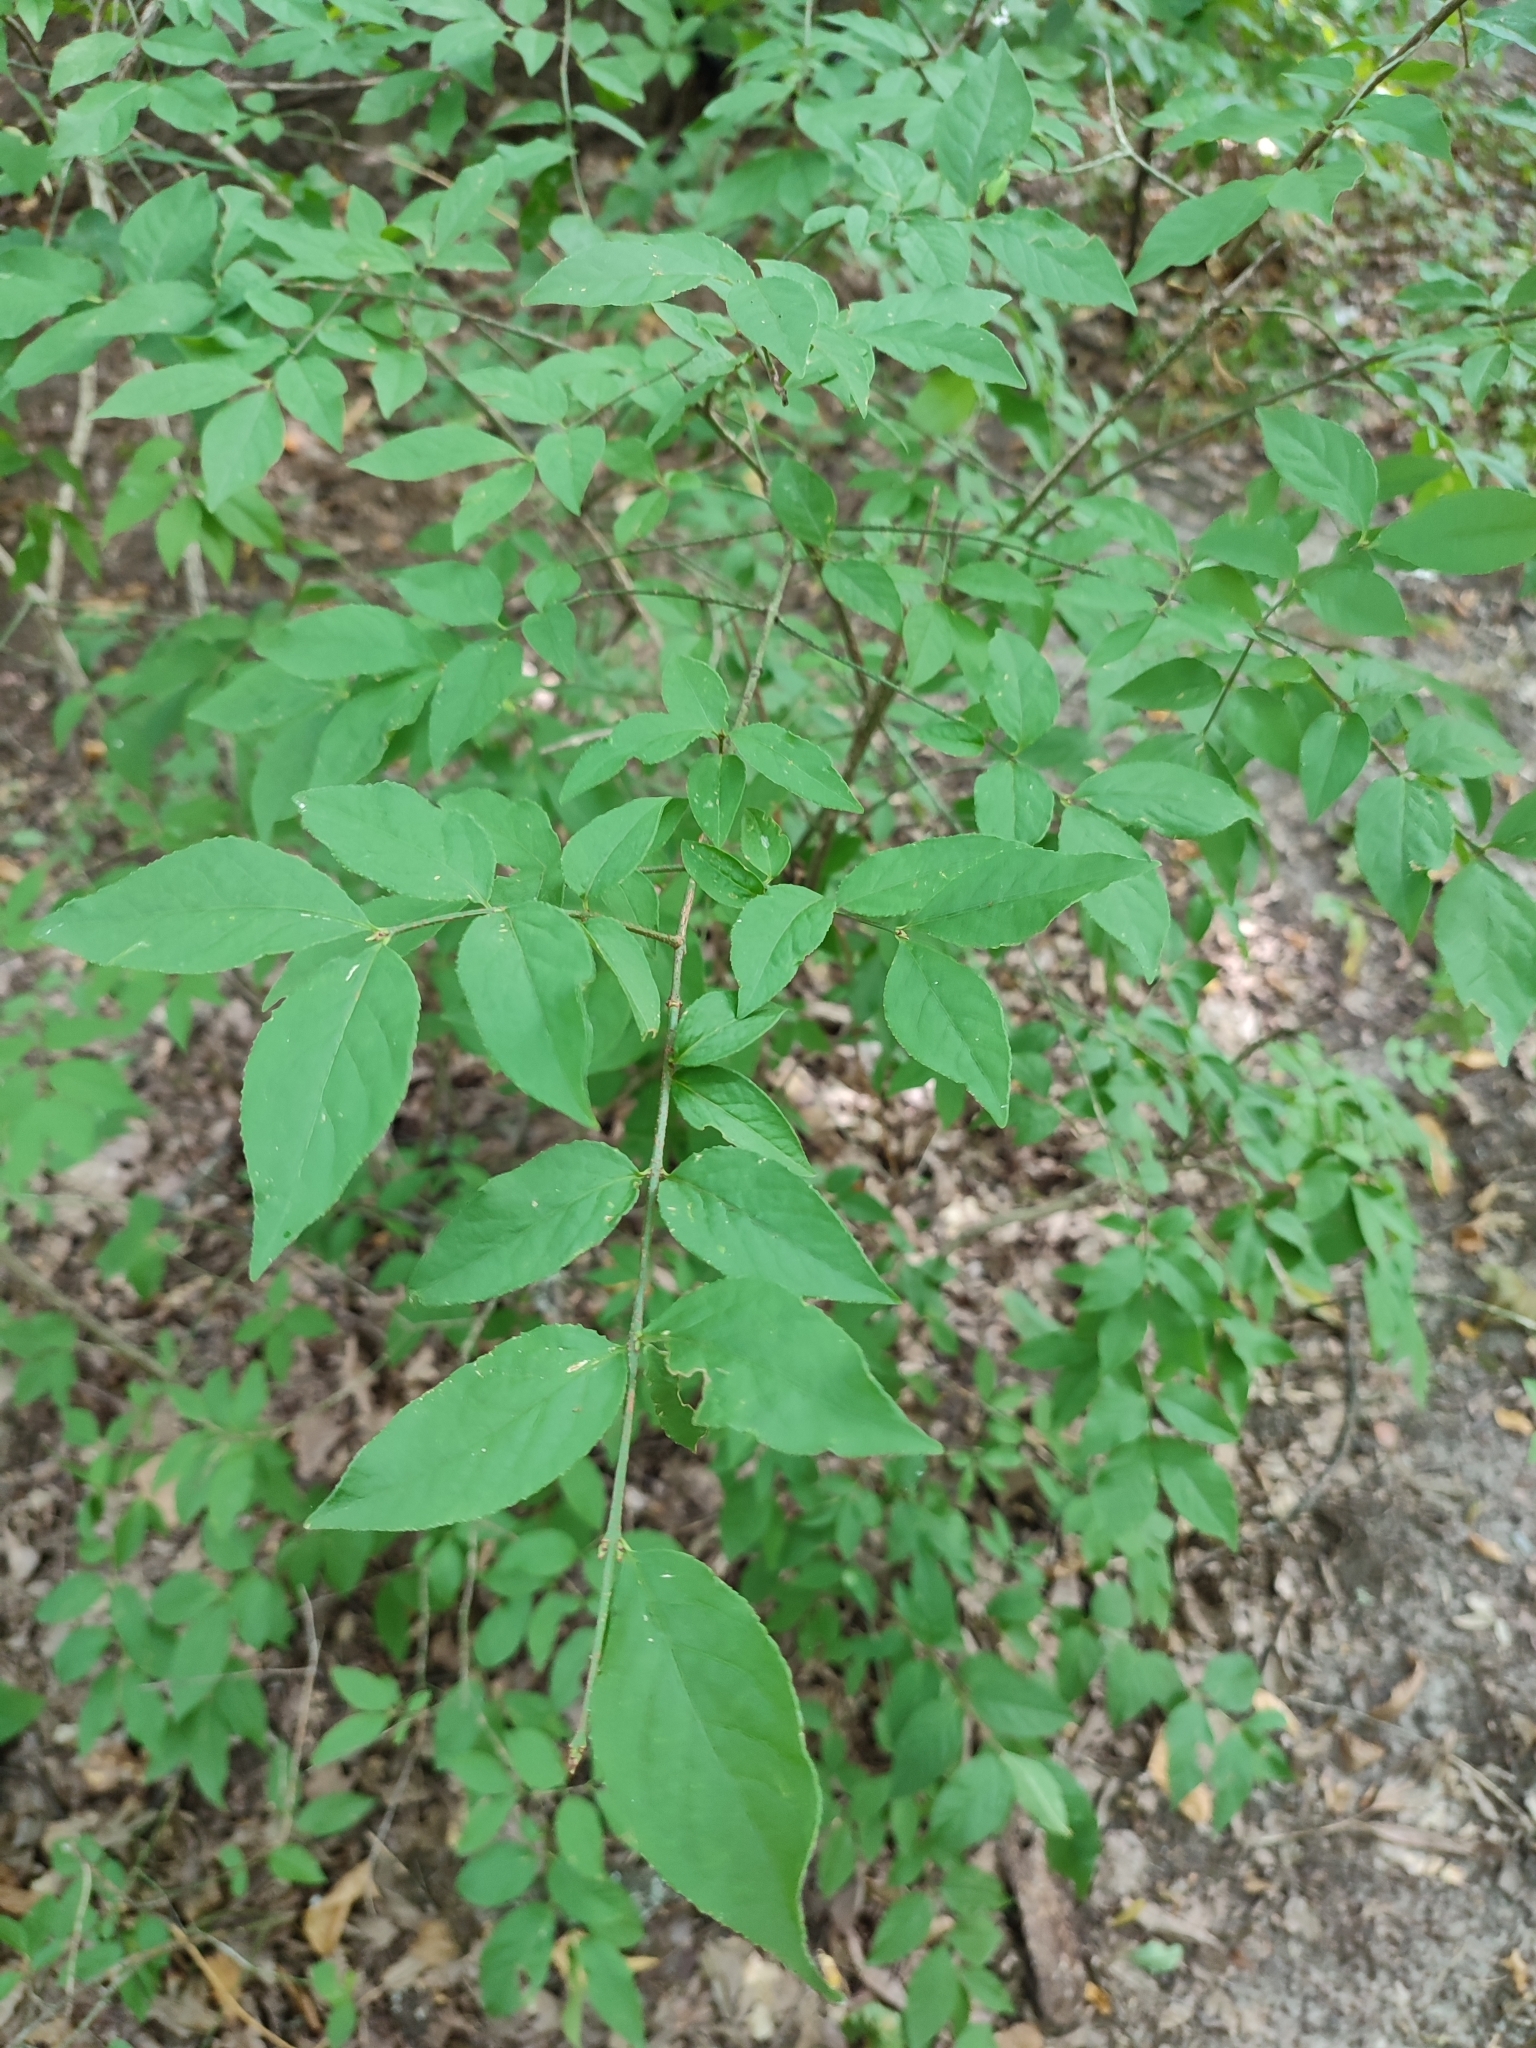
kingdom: Plantae
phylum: Tracheophyta
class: Magnoliopsida
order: Celastrales
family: Celastraceae
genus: Euonymus
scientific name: Euonymus verrucosus
